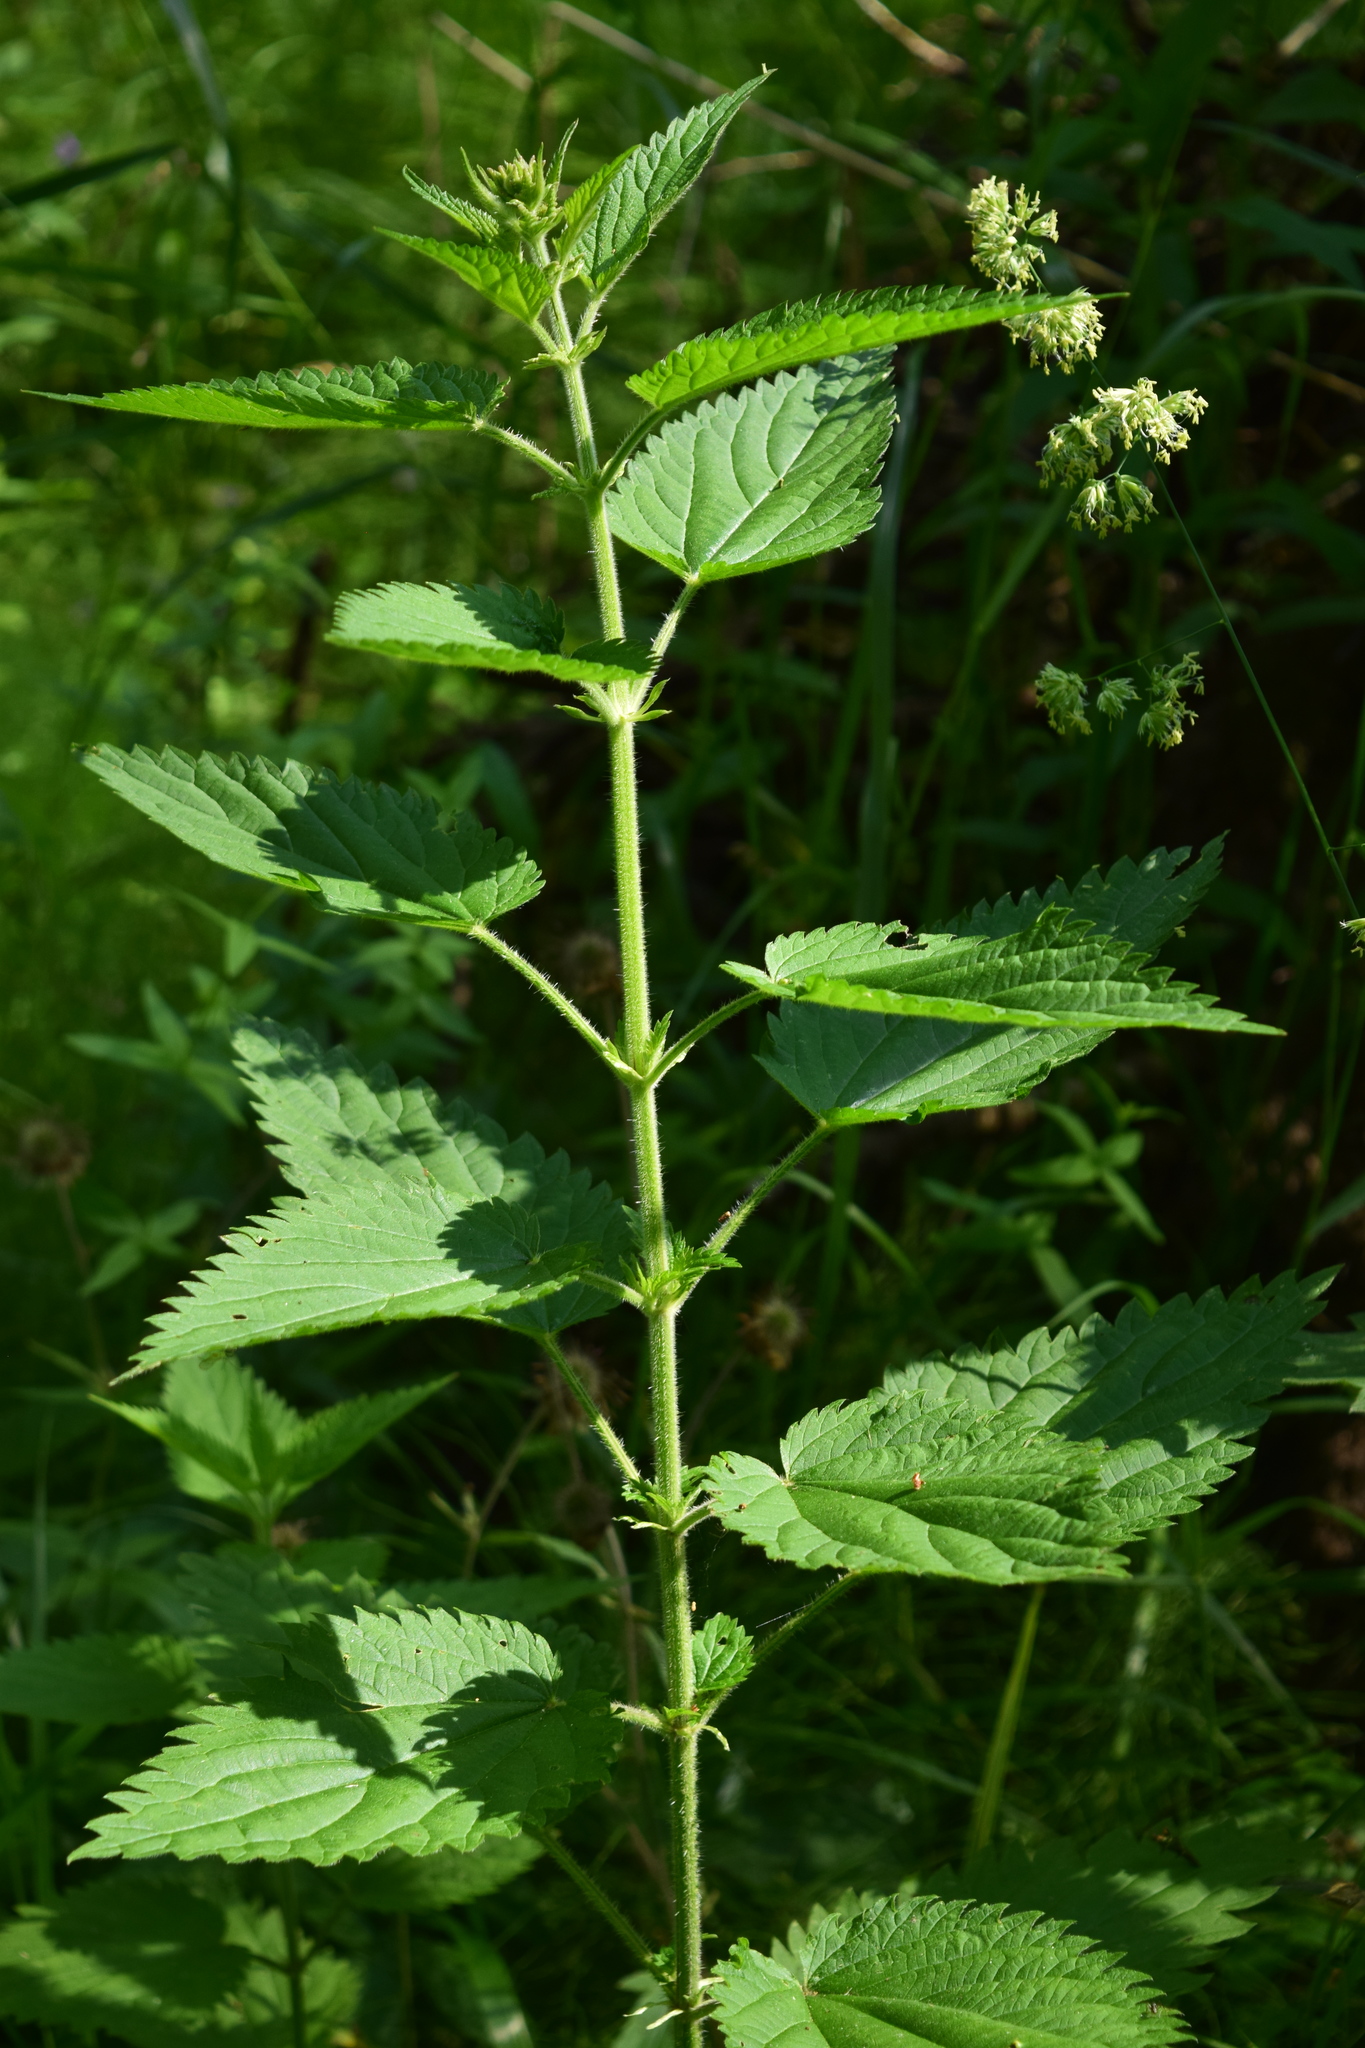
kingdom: Plantae
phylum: Tracheophyta
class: Magnoliopsida
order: Rosales
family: Urticaceae
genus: Urtica
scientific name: Urtica dioica
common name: Common nettle
